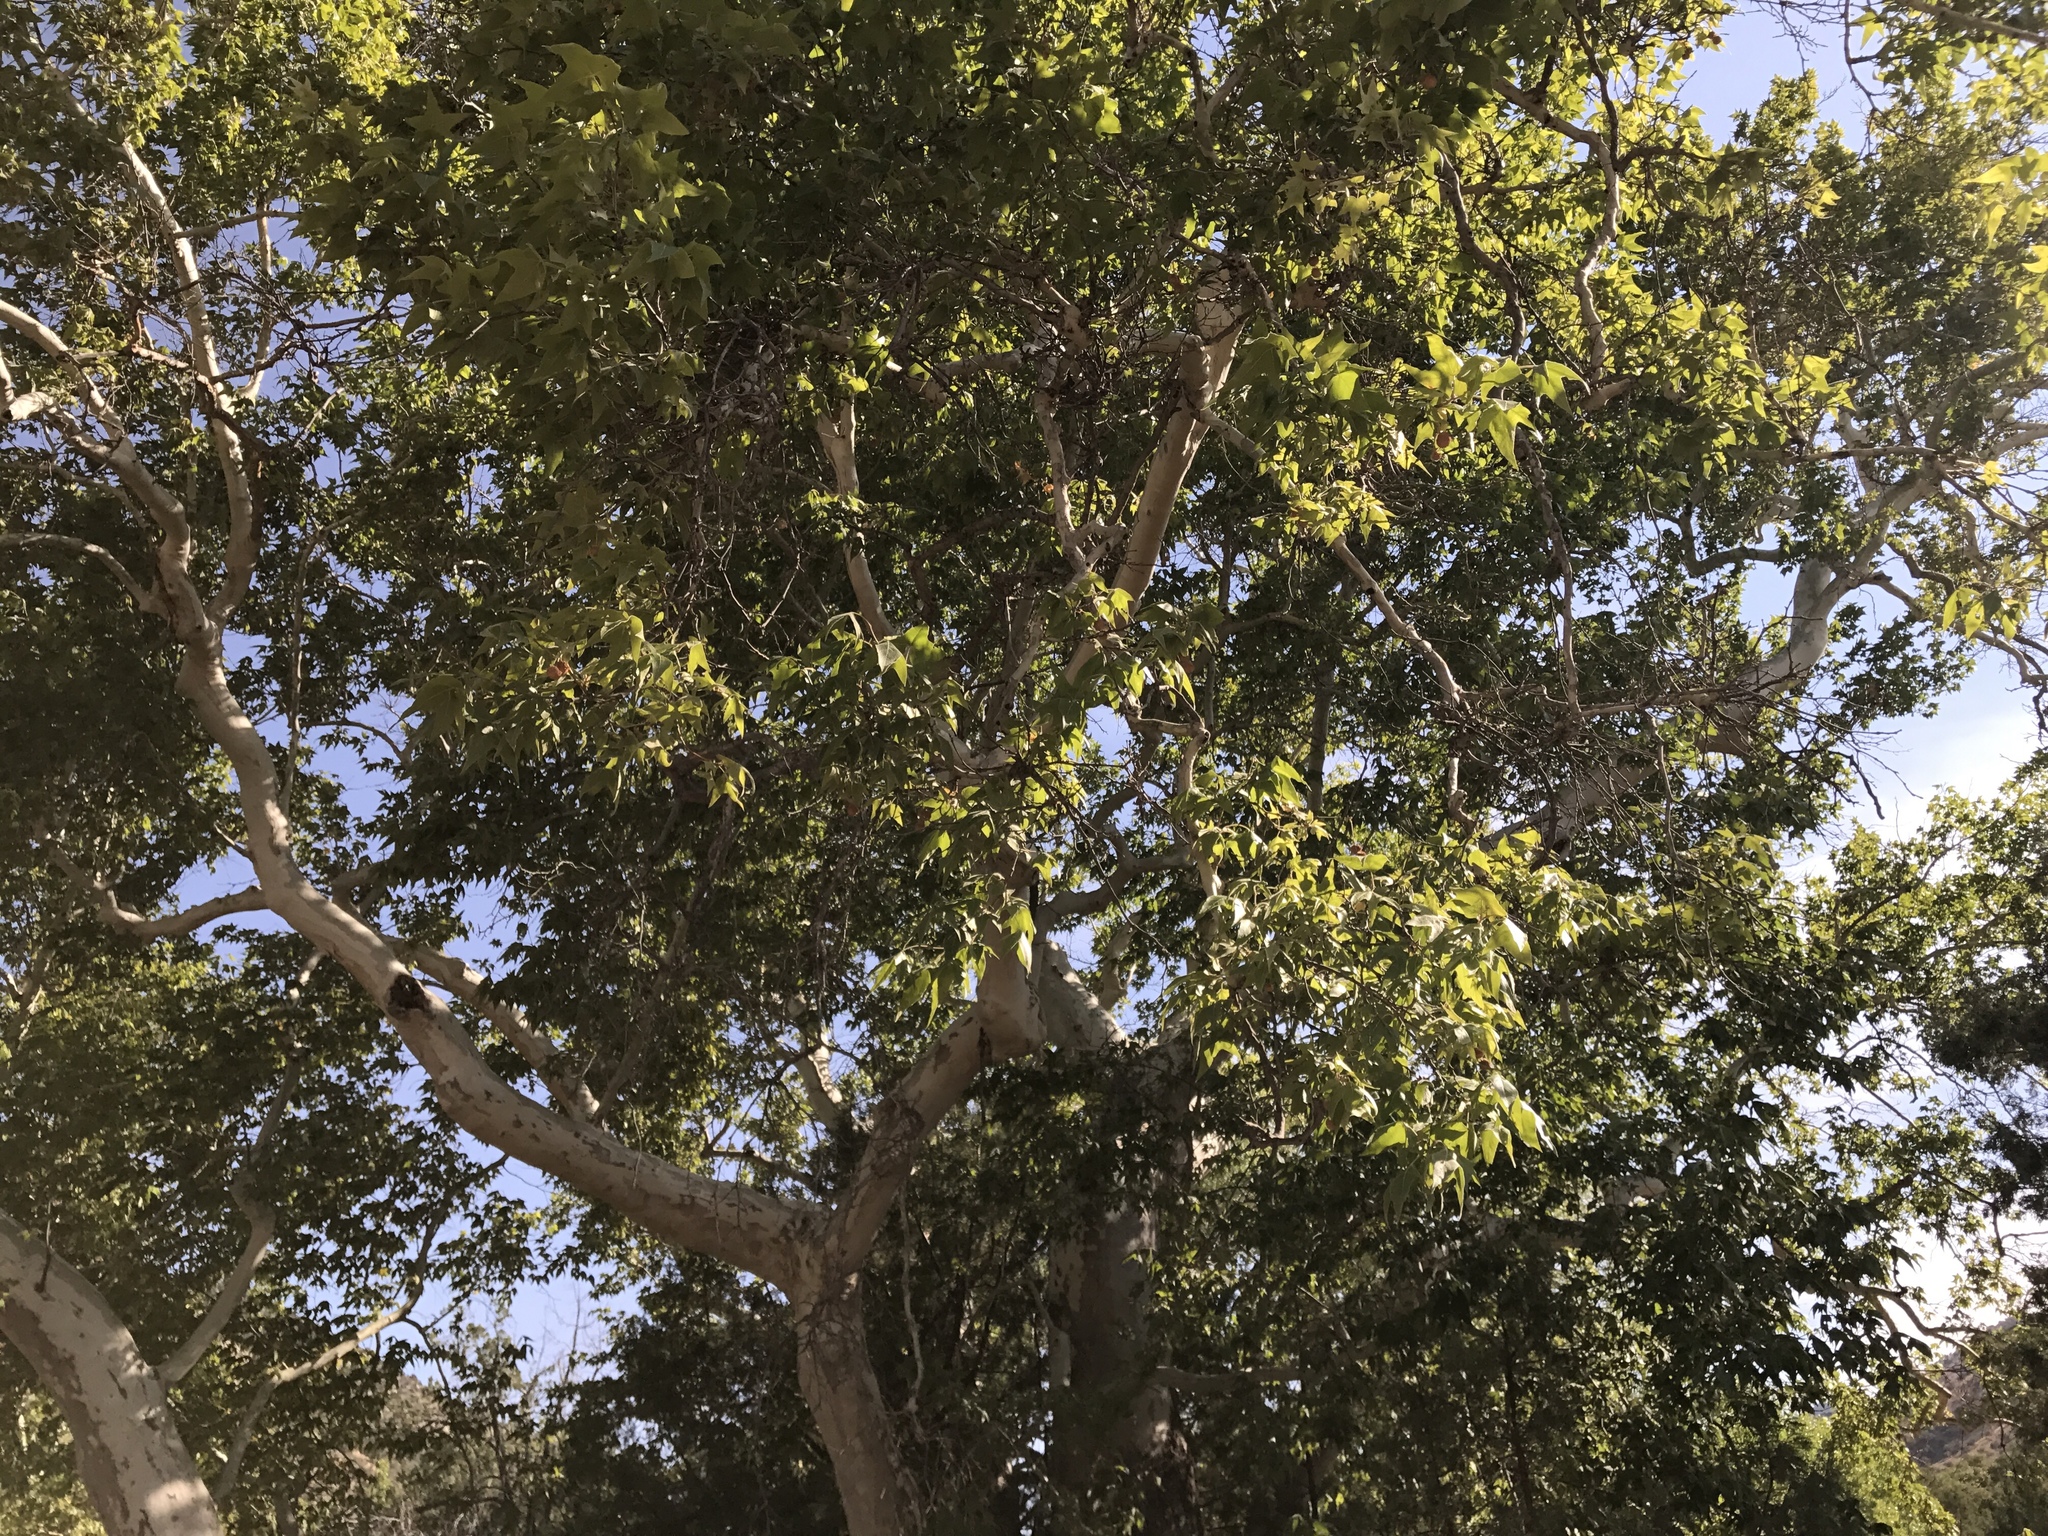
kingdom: Plantae
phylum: Tracheophyta
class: Magnoliopsida
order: Proteales
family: Platanaceae
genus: Platanus
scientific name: Platanus wrightii
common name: Arizona sycamore
